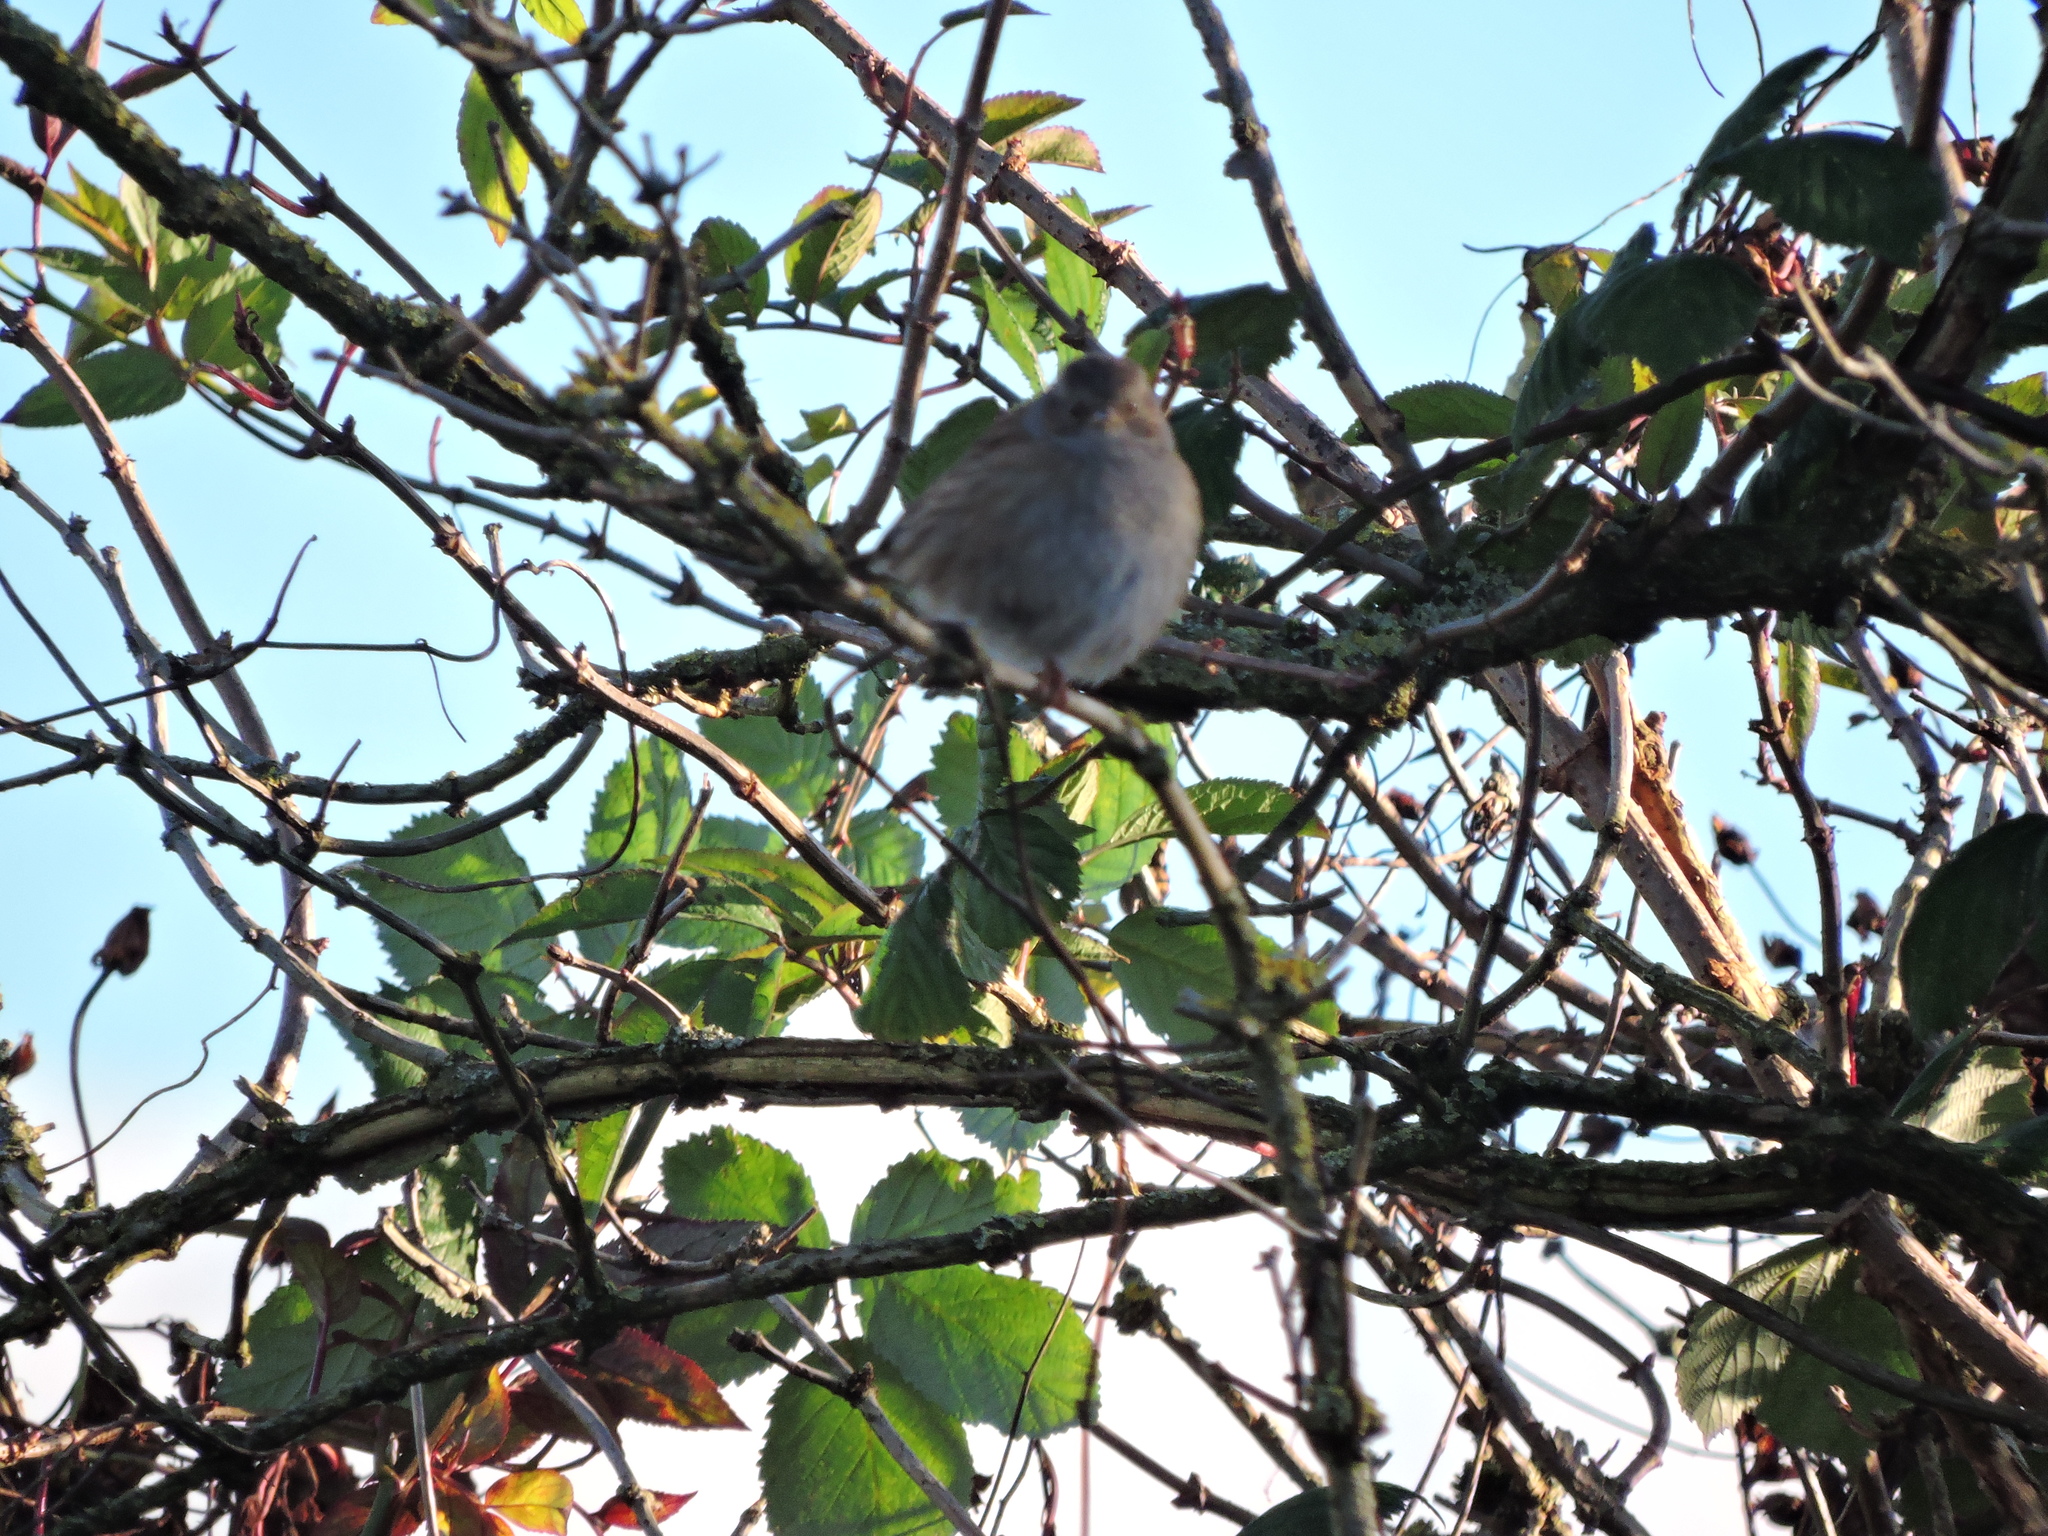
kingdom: Animalia
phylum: Chordata
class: Aves
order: Passeriformes
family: Prunellidae
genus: Prunella
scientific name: Prunella modularis
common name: Dunnock
